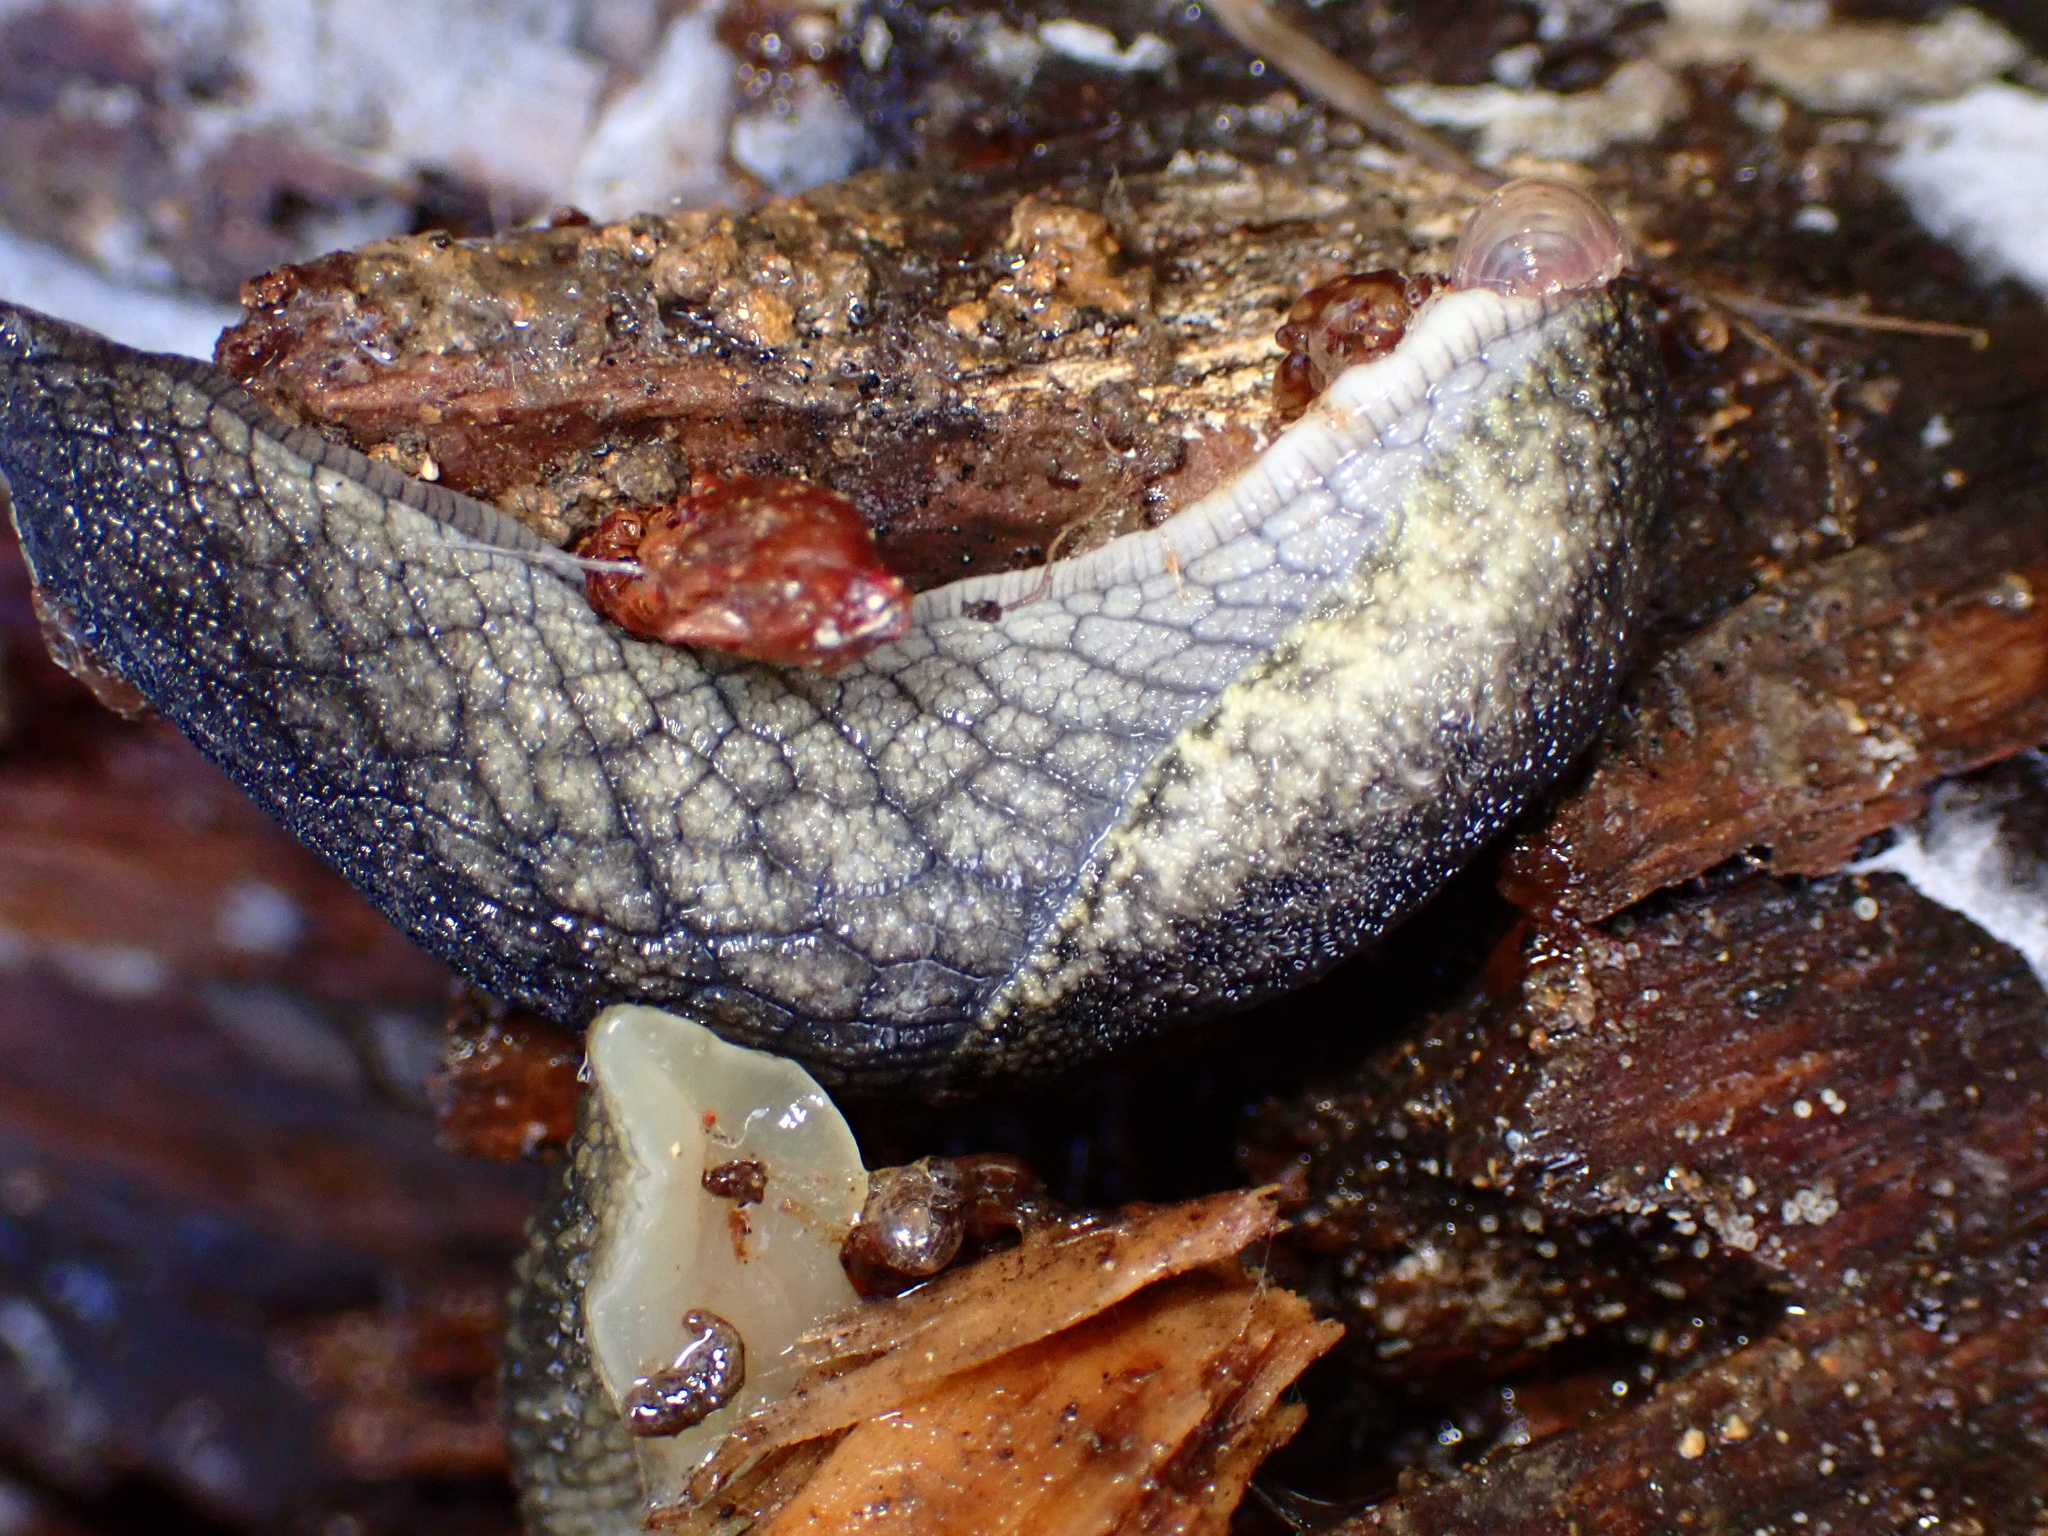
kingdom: Animalia
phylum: Mollusca
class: Gastropoda
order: Stylommatophora
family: Ariolimacidae
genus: Prophysaon
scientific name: Prophysaon andersonii
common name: Reticulate taildropper
